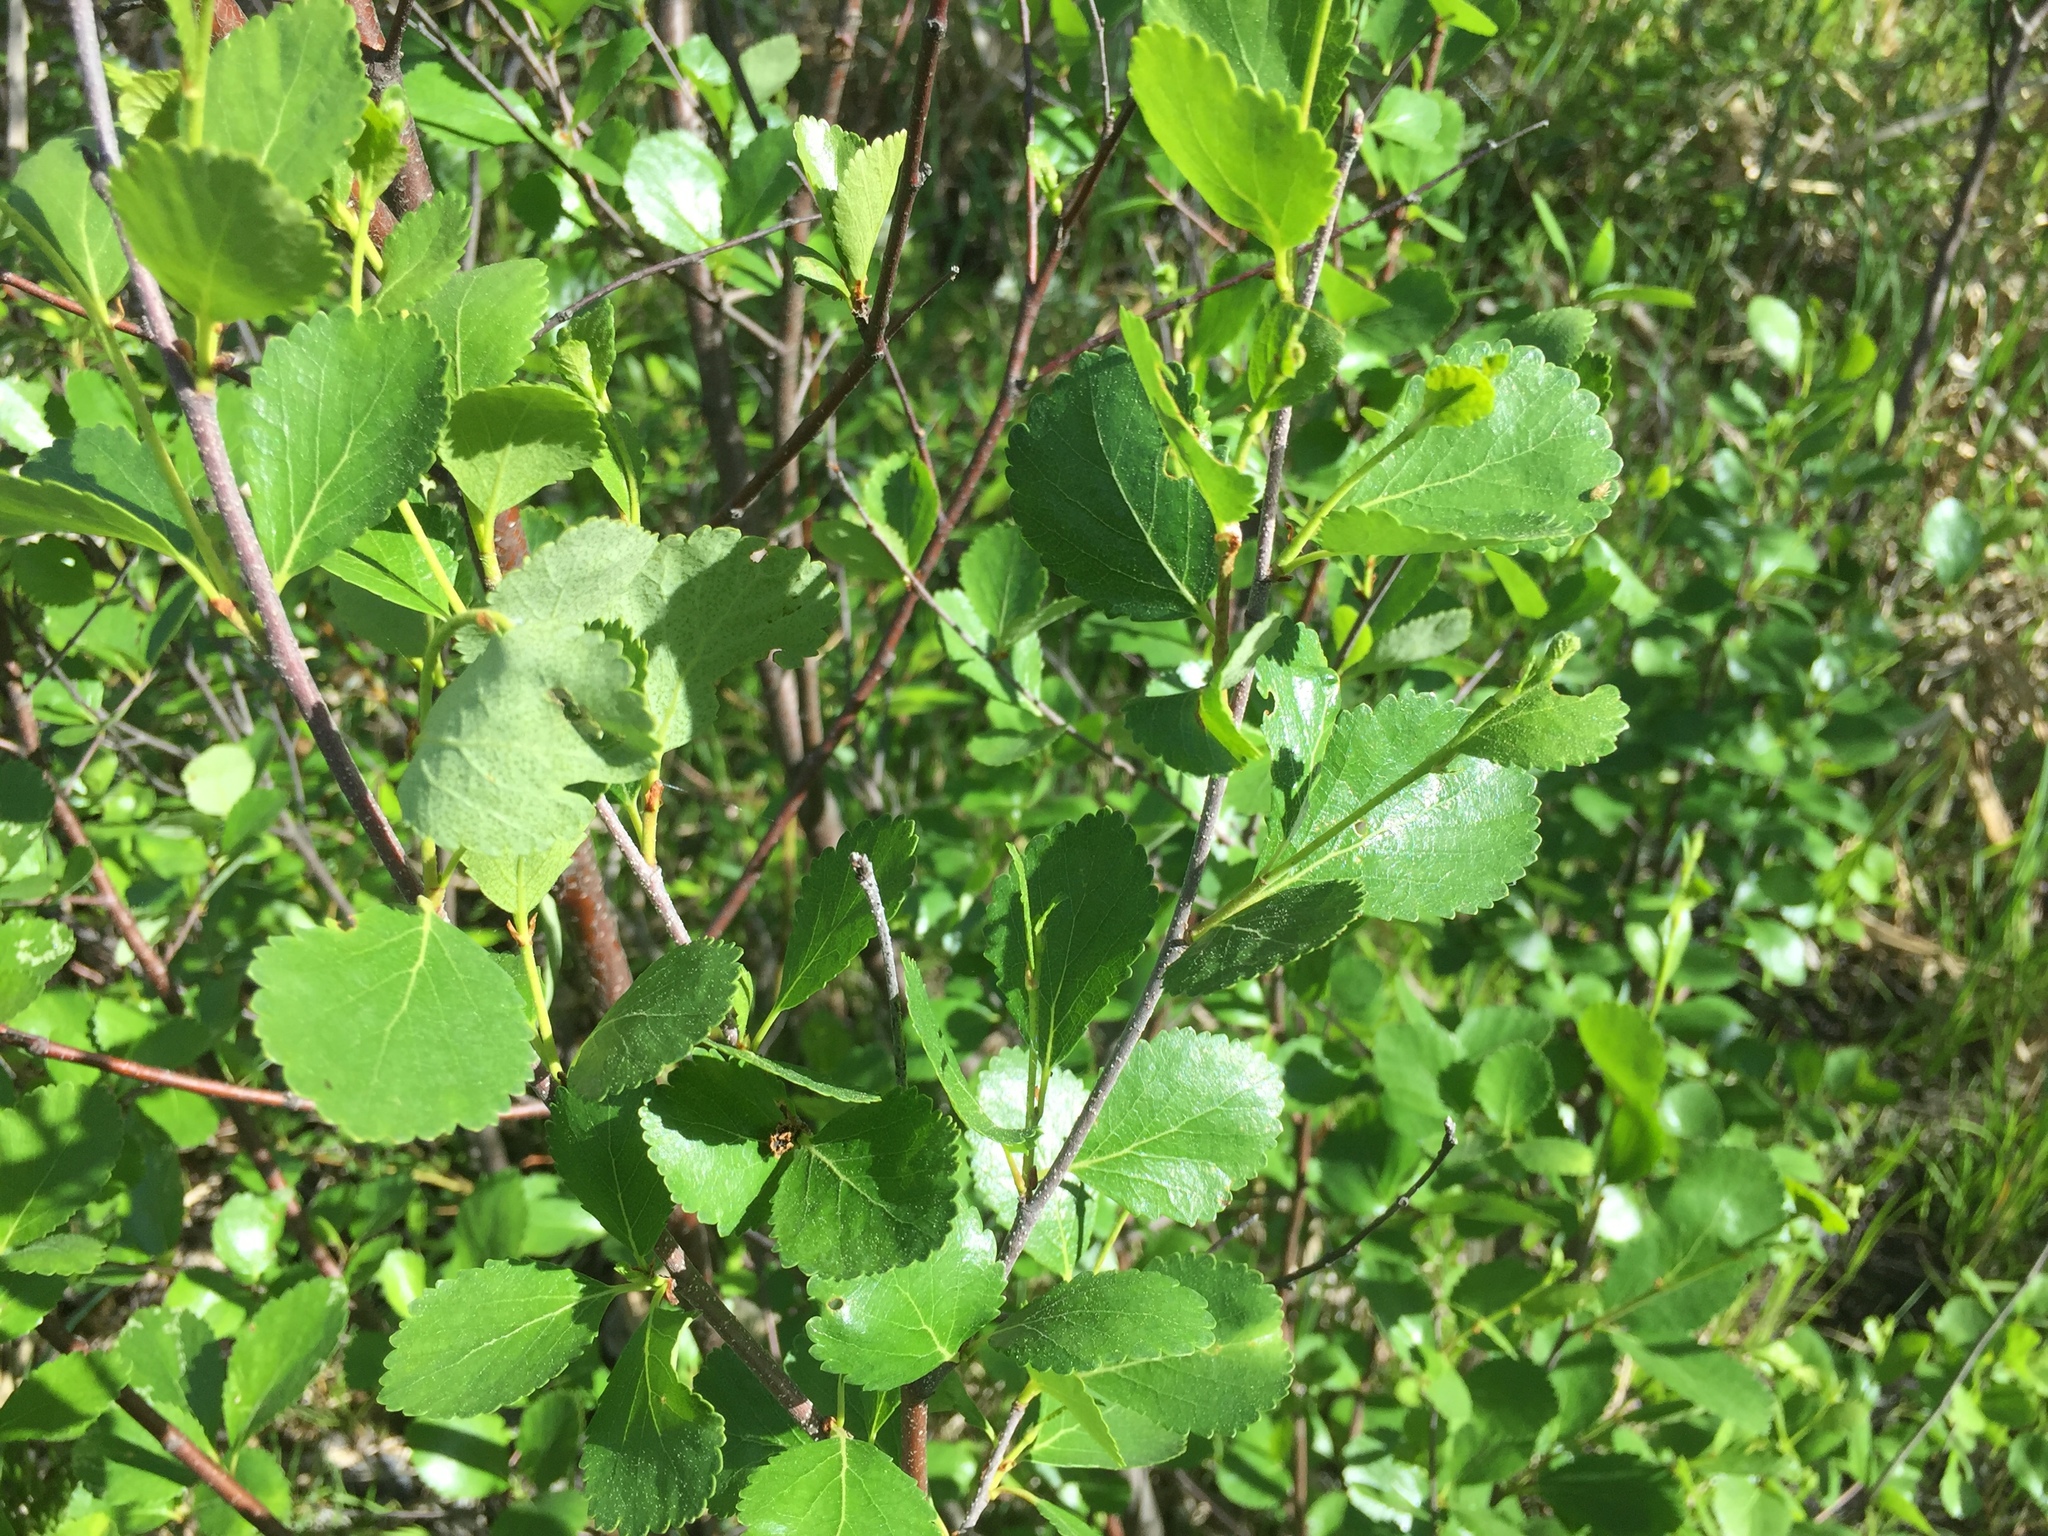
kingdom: Plantae
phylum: Tracheophyta
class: Magnoliopsida
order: Fagales
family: Betulaceae
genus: Betula
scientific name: Betula pumila
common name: Bog birch
